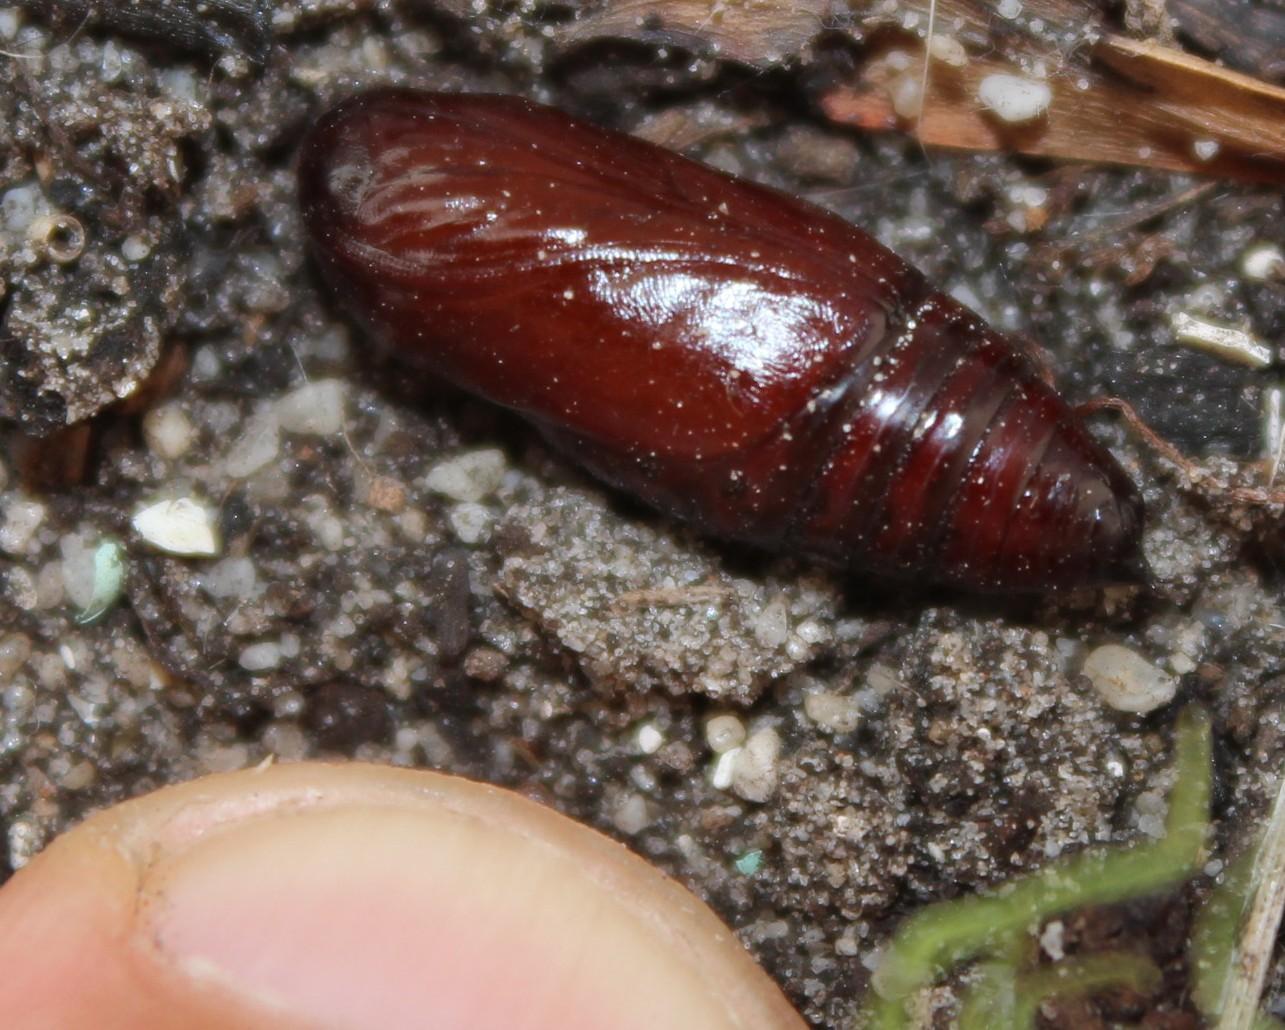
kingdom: Animalia
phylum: Arthropoda
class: Insecta
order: Lepidoptera
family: Noctuidae
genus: Compsotata
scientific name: Compsotata elegantissima
